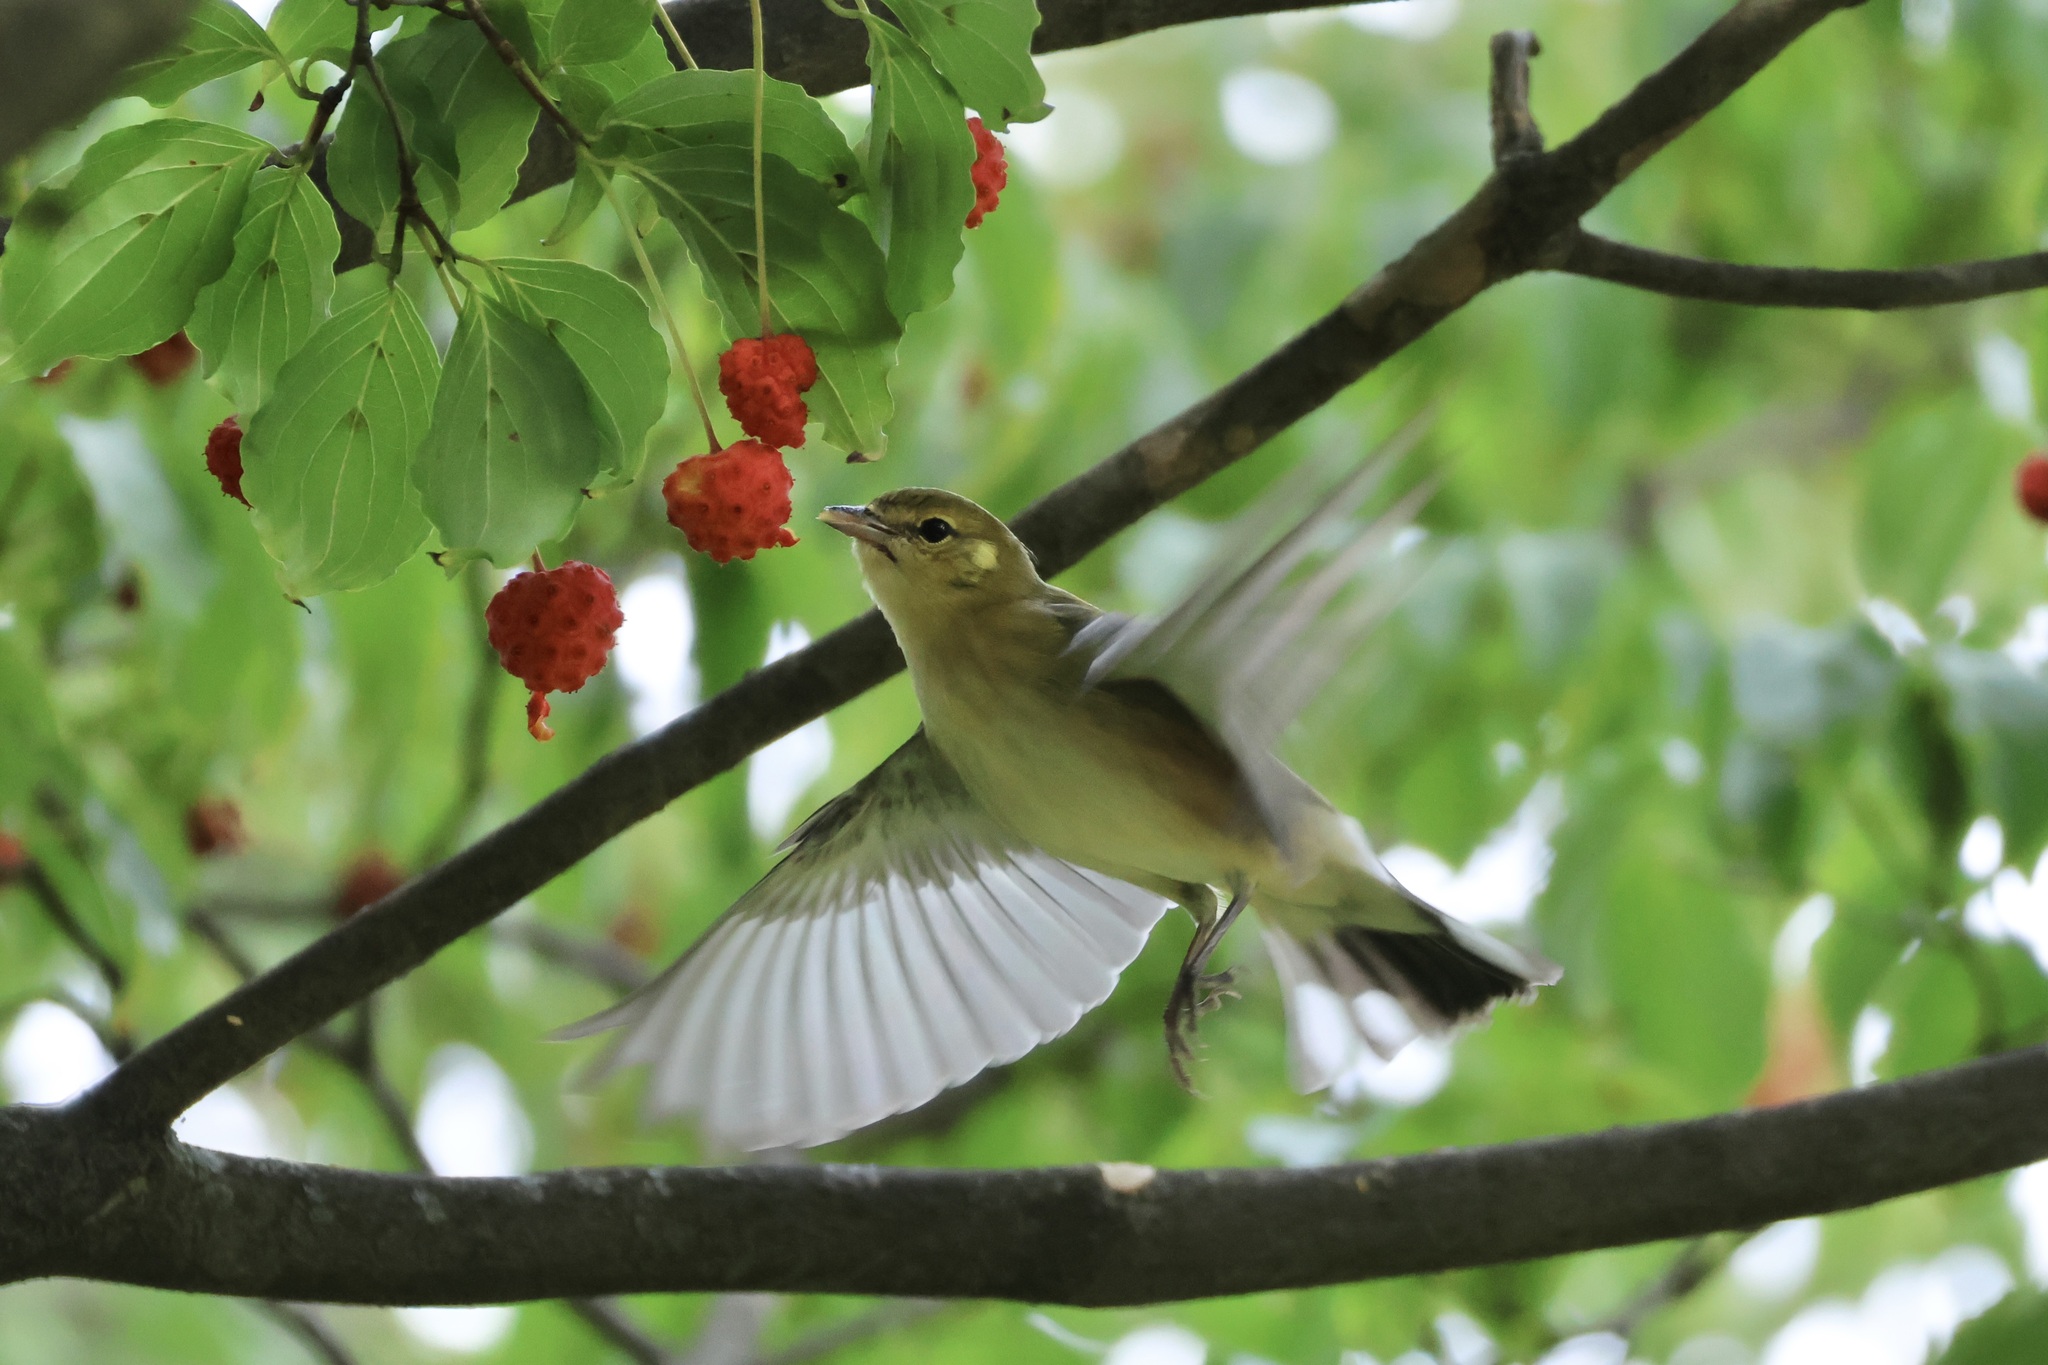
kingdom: Animalia
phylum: Chordata
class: Aves
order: Passeriformes
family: Parulidae
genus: Setophaga
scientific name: Setophaga castanea
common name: Bay-breasted warbler
